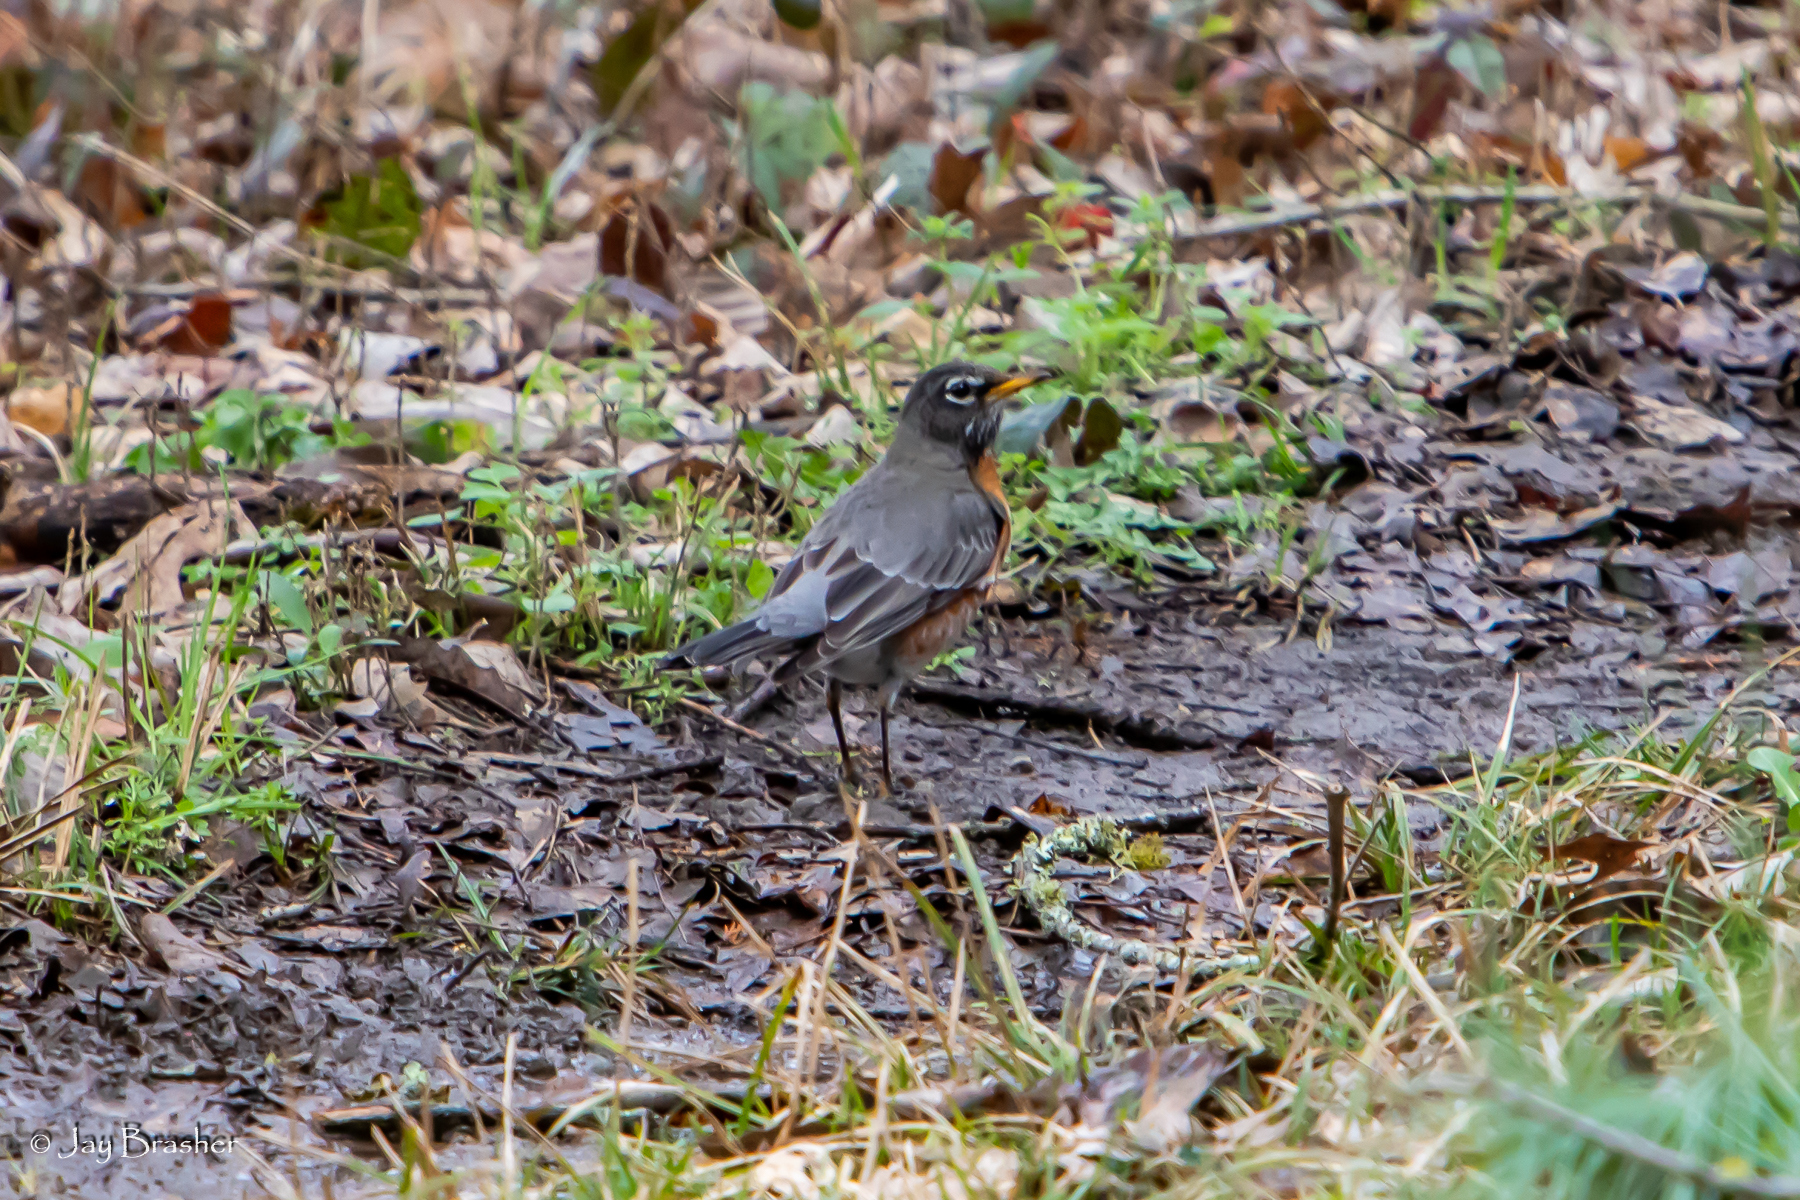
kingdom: Animalia
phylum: Chordata
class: Aves
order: Passeriformes
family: Turdidae
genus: Turdus
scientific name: Turdus migratorius
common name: American robin
